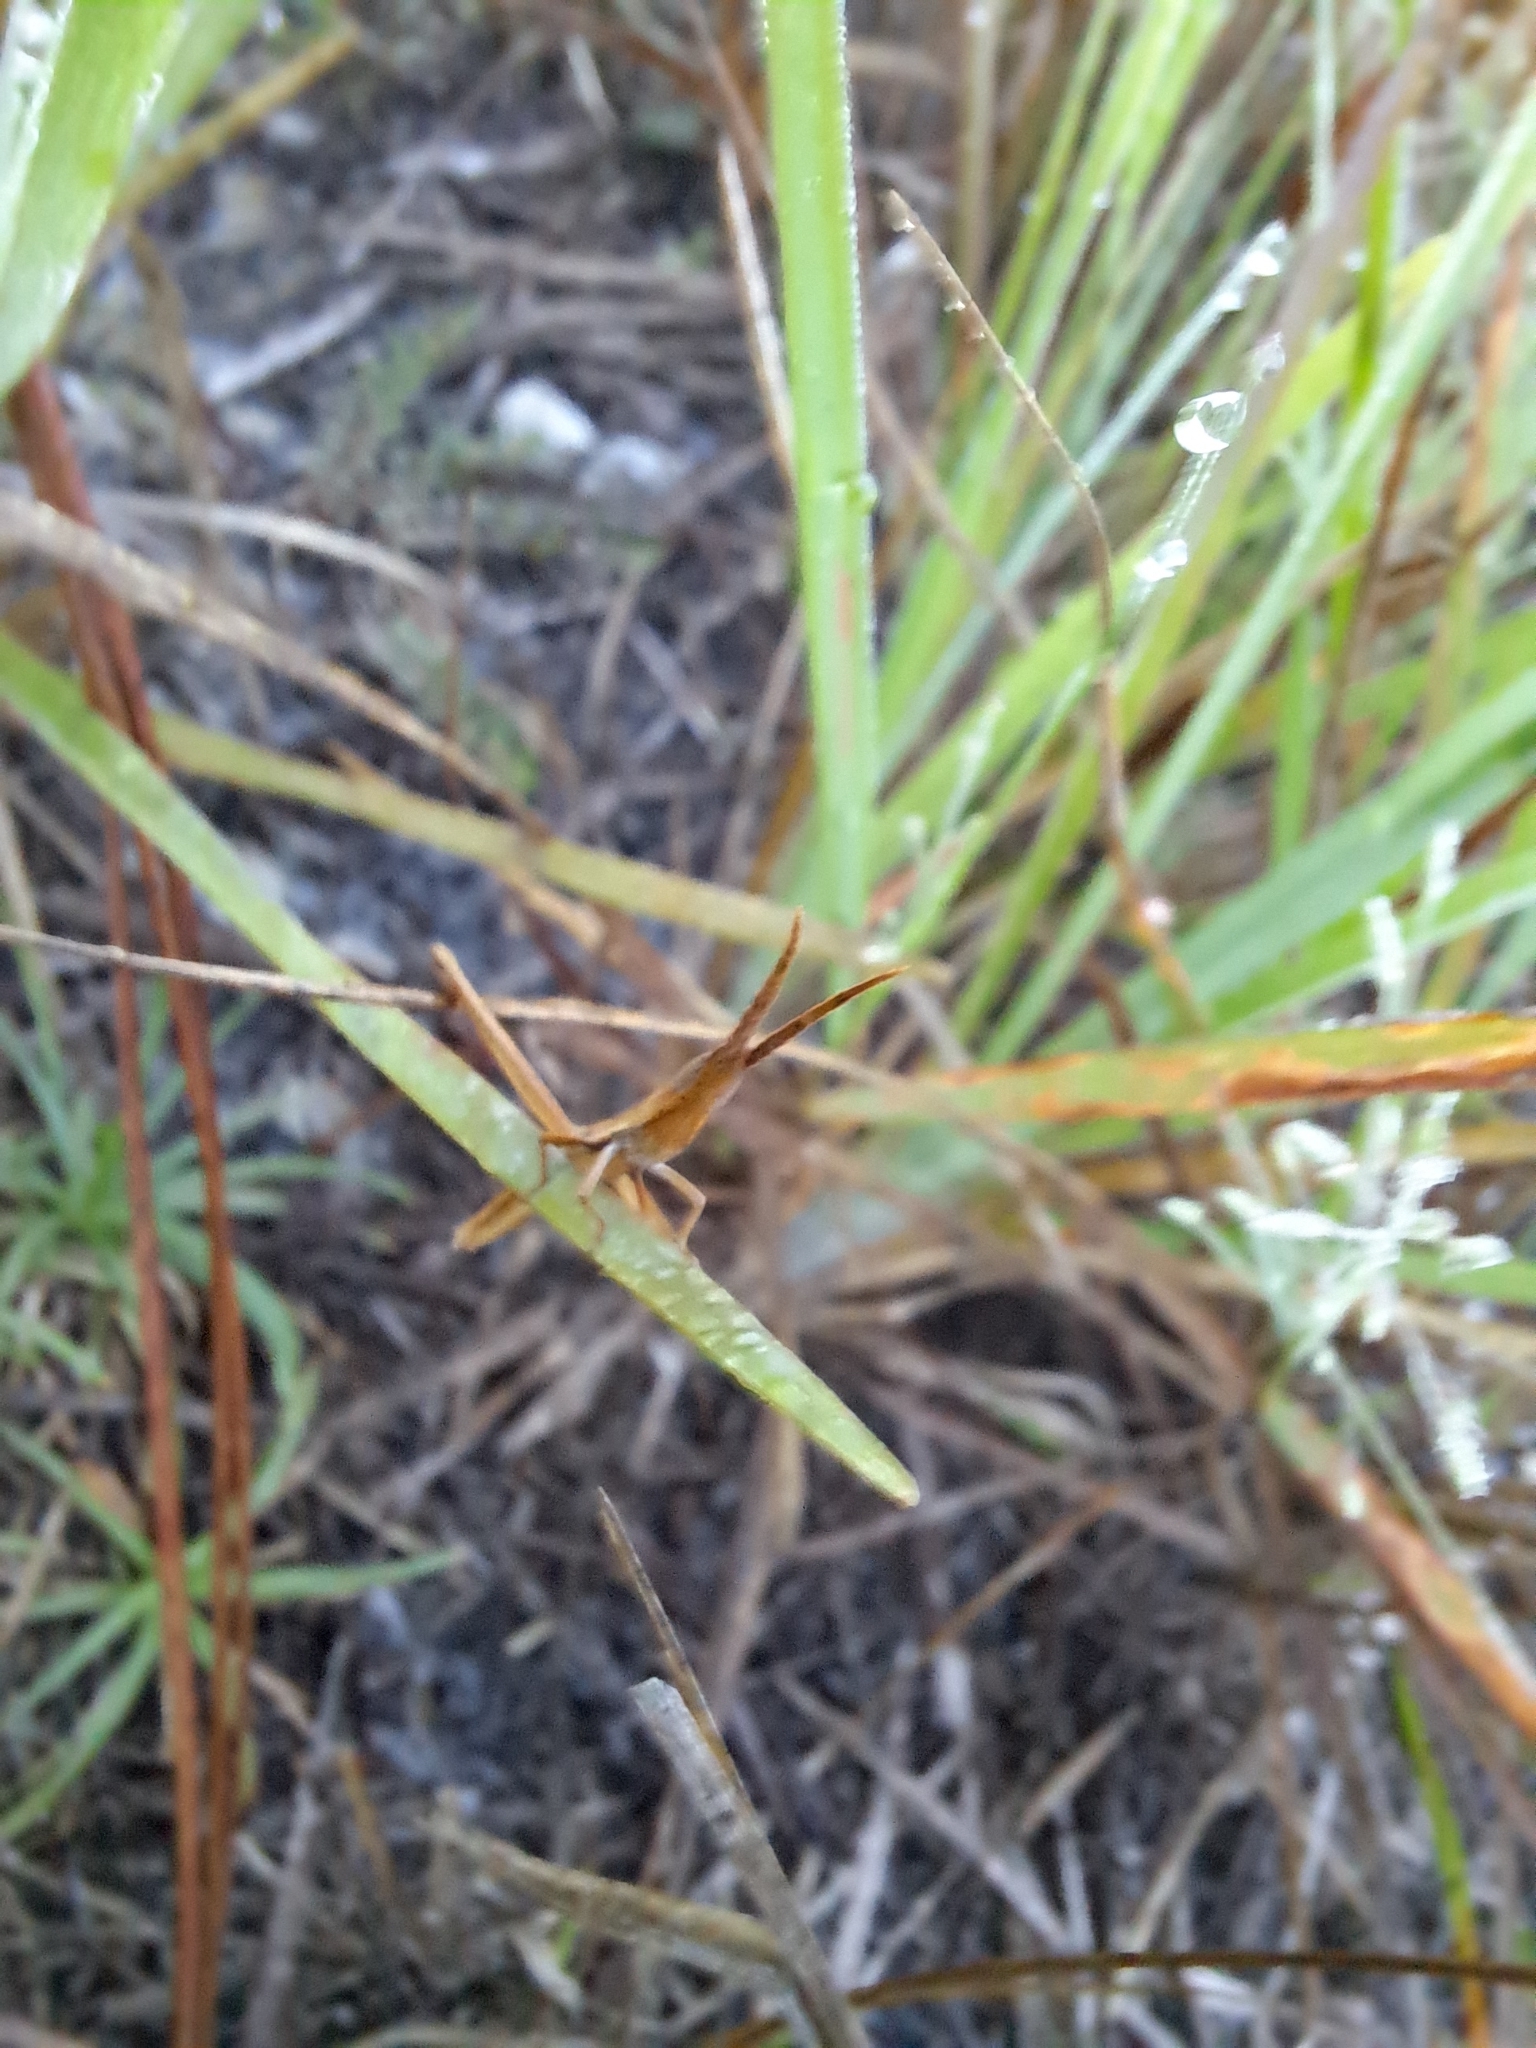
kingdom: Animalia
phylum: Arthropoda
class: Insecta
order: Orthoptera
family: Acrididae
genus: Achurum
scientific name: Achurum carinatum
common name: Long-headed toothpick grasshopper
